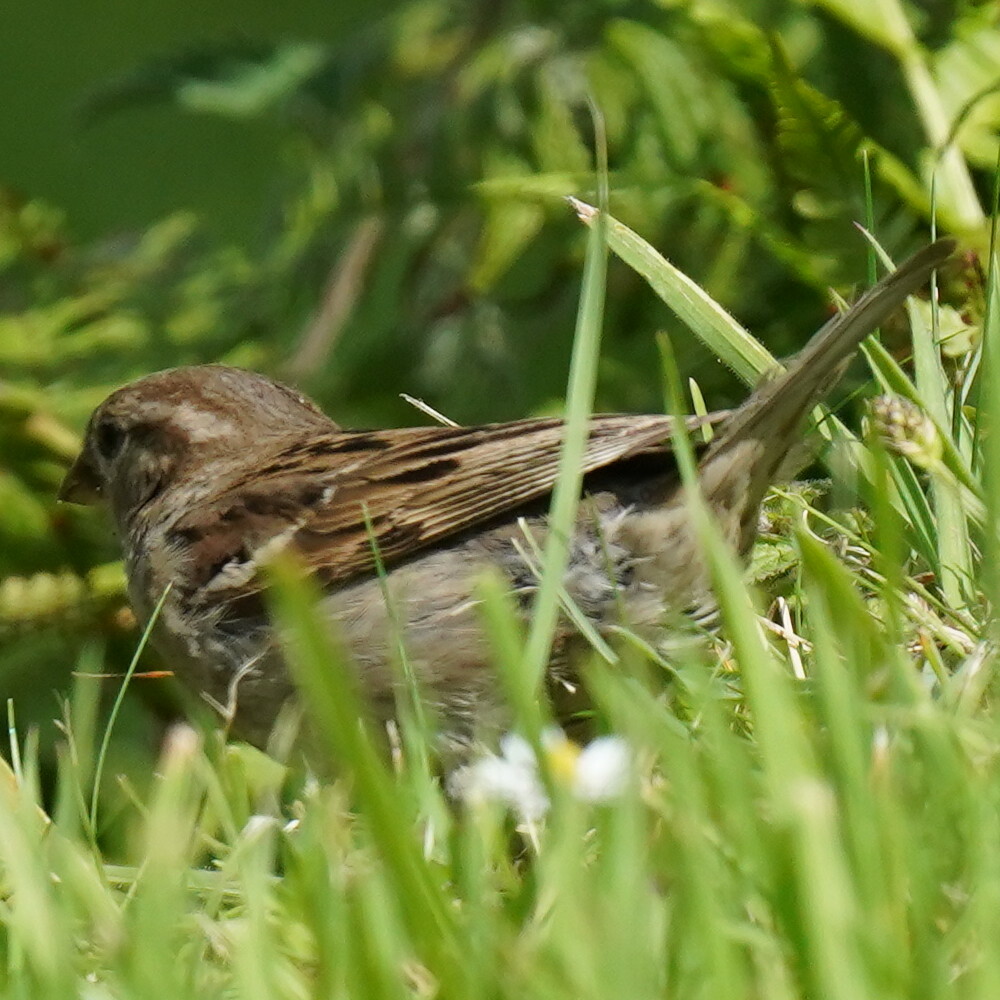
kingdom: Animalia
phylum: Chordata
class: Aves
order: Passeriformes
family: Passeridae
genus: Passer
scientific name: Passer domesticus
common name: House sparrow
